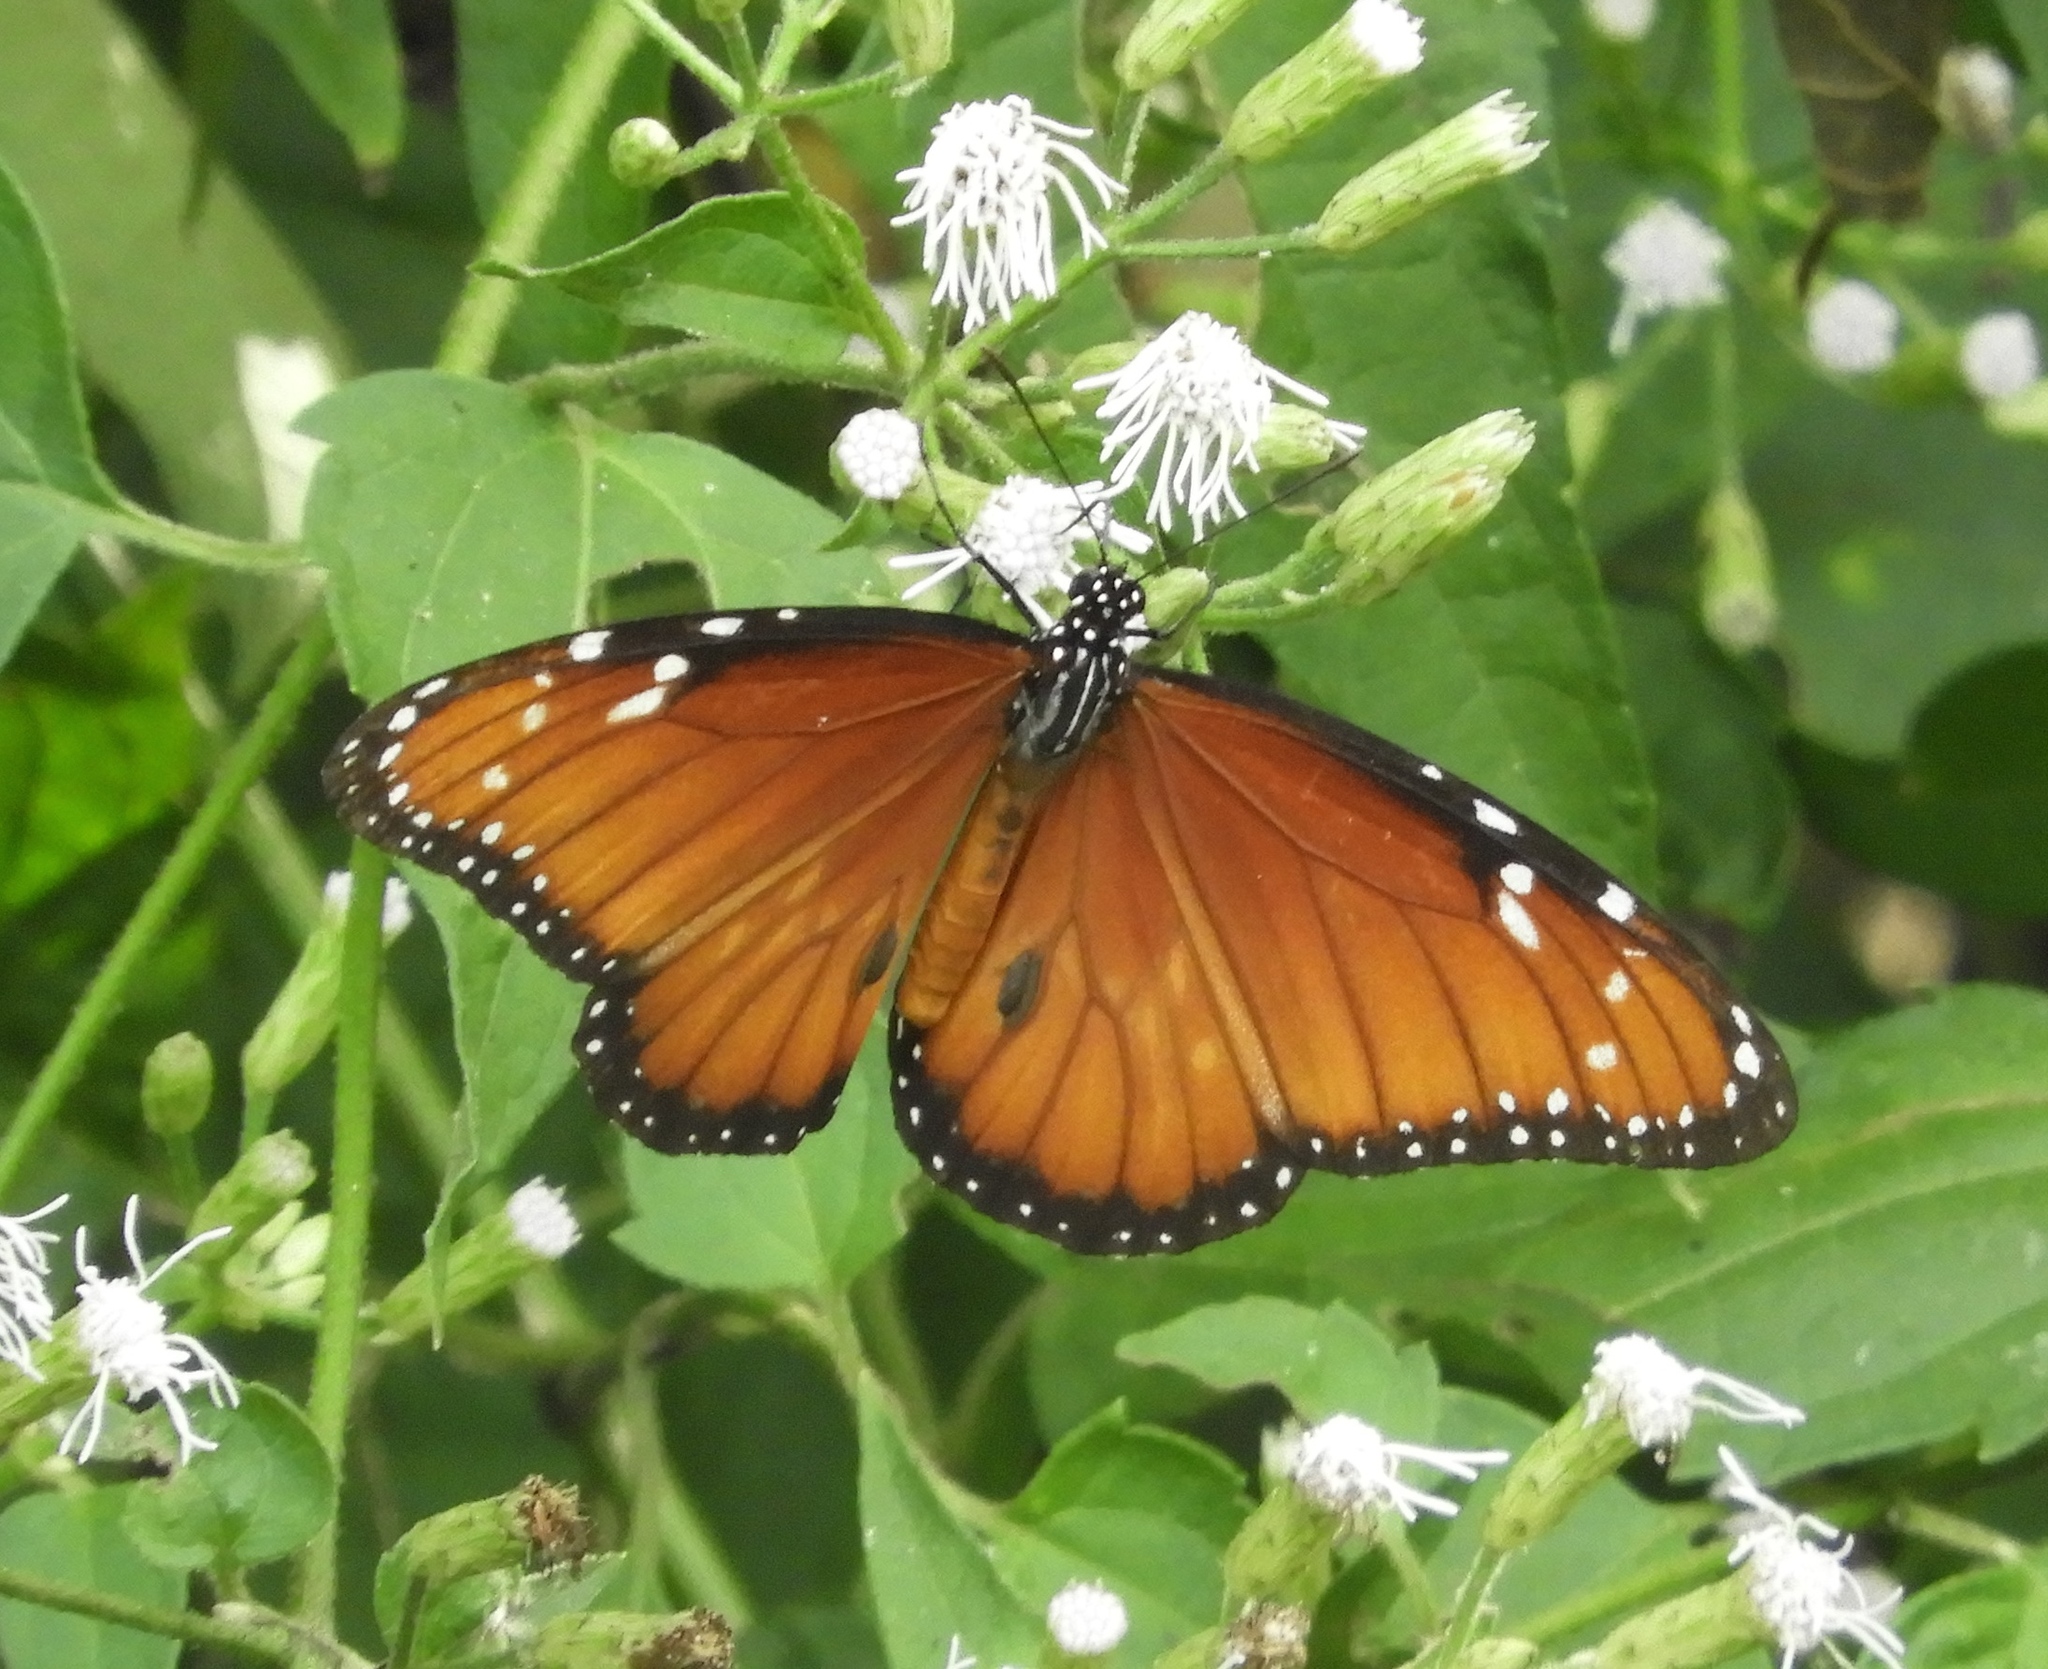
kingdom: Animalia
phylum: Arthropoda
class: Insecta
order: Lepidoptera
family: Nymphalidae
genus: Danaus
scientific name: Danaus eresimus
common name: Soldier
